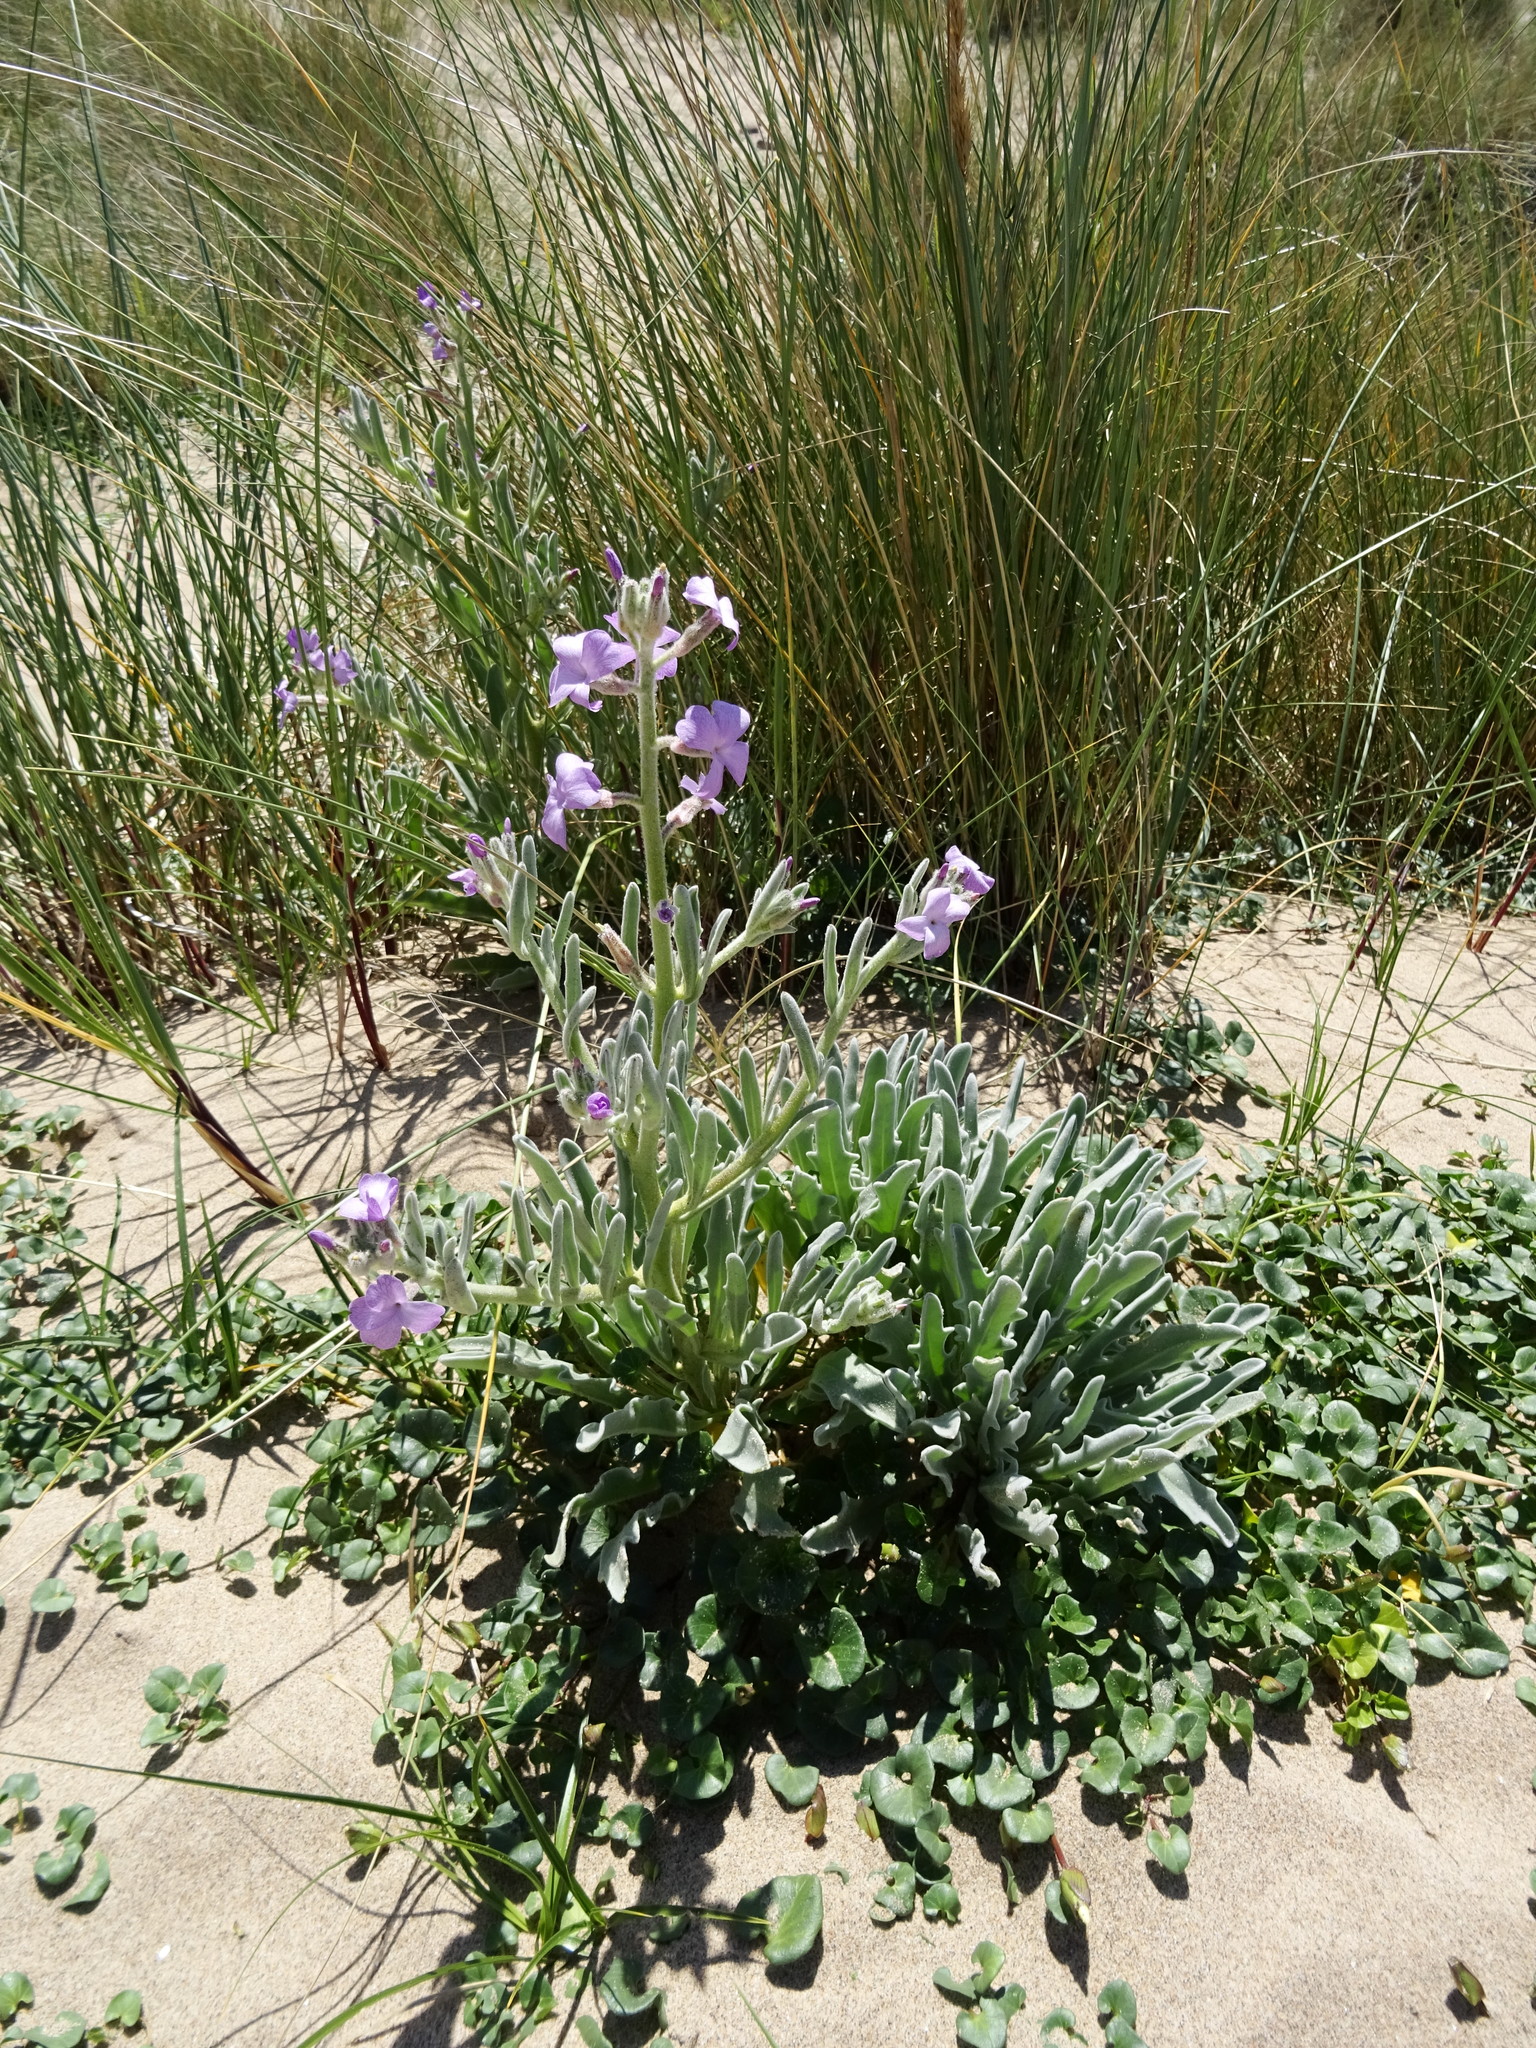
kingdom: Plantae
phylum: Tracheophyta
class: Magnoliopsida
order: Brassicales
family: Brassicaceae
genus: Matthiola
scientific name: Matthiola sinuata
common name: Sea stock
